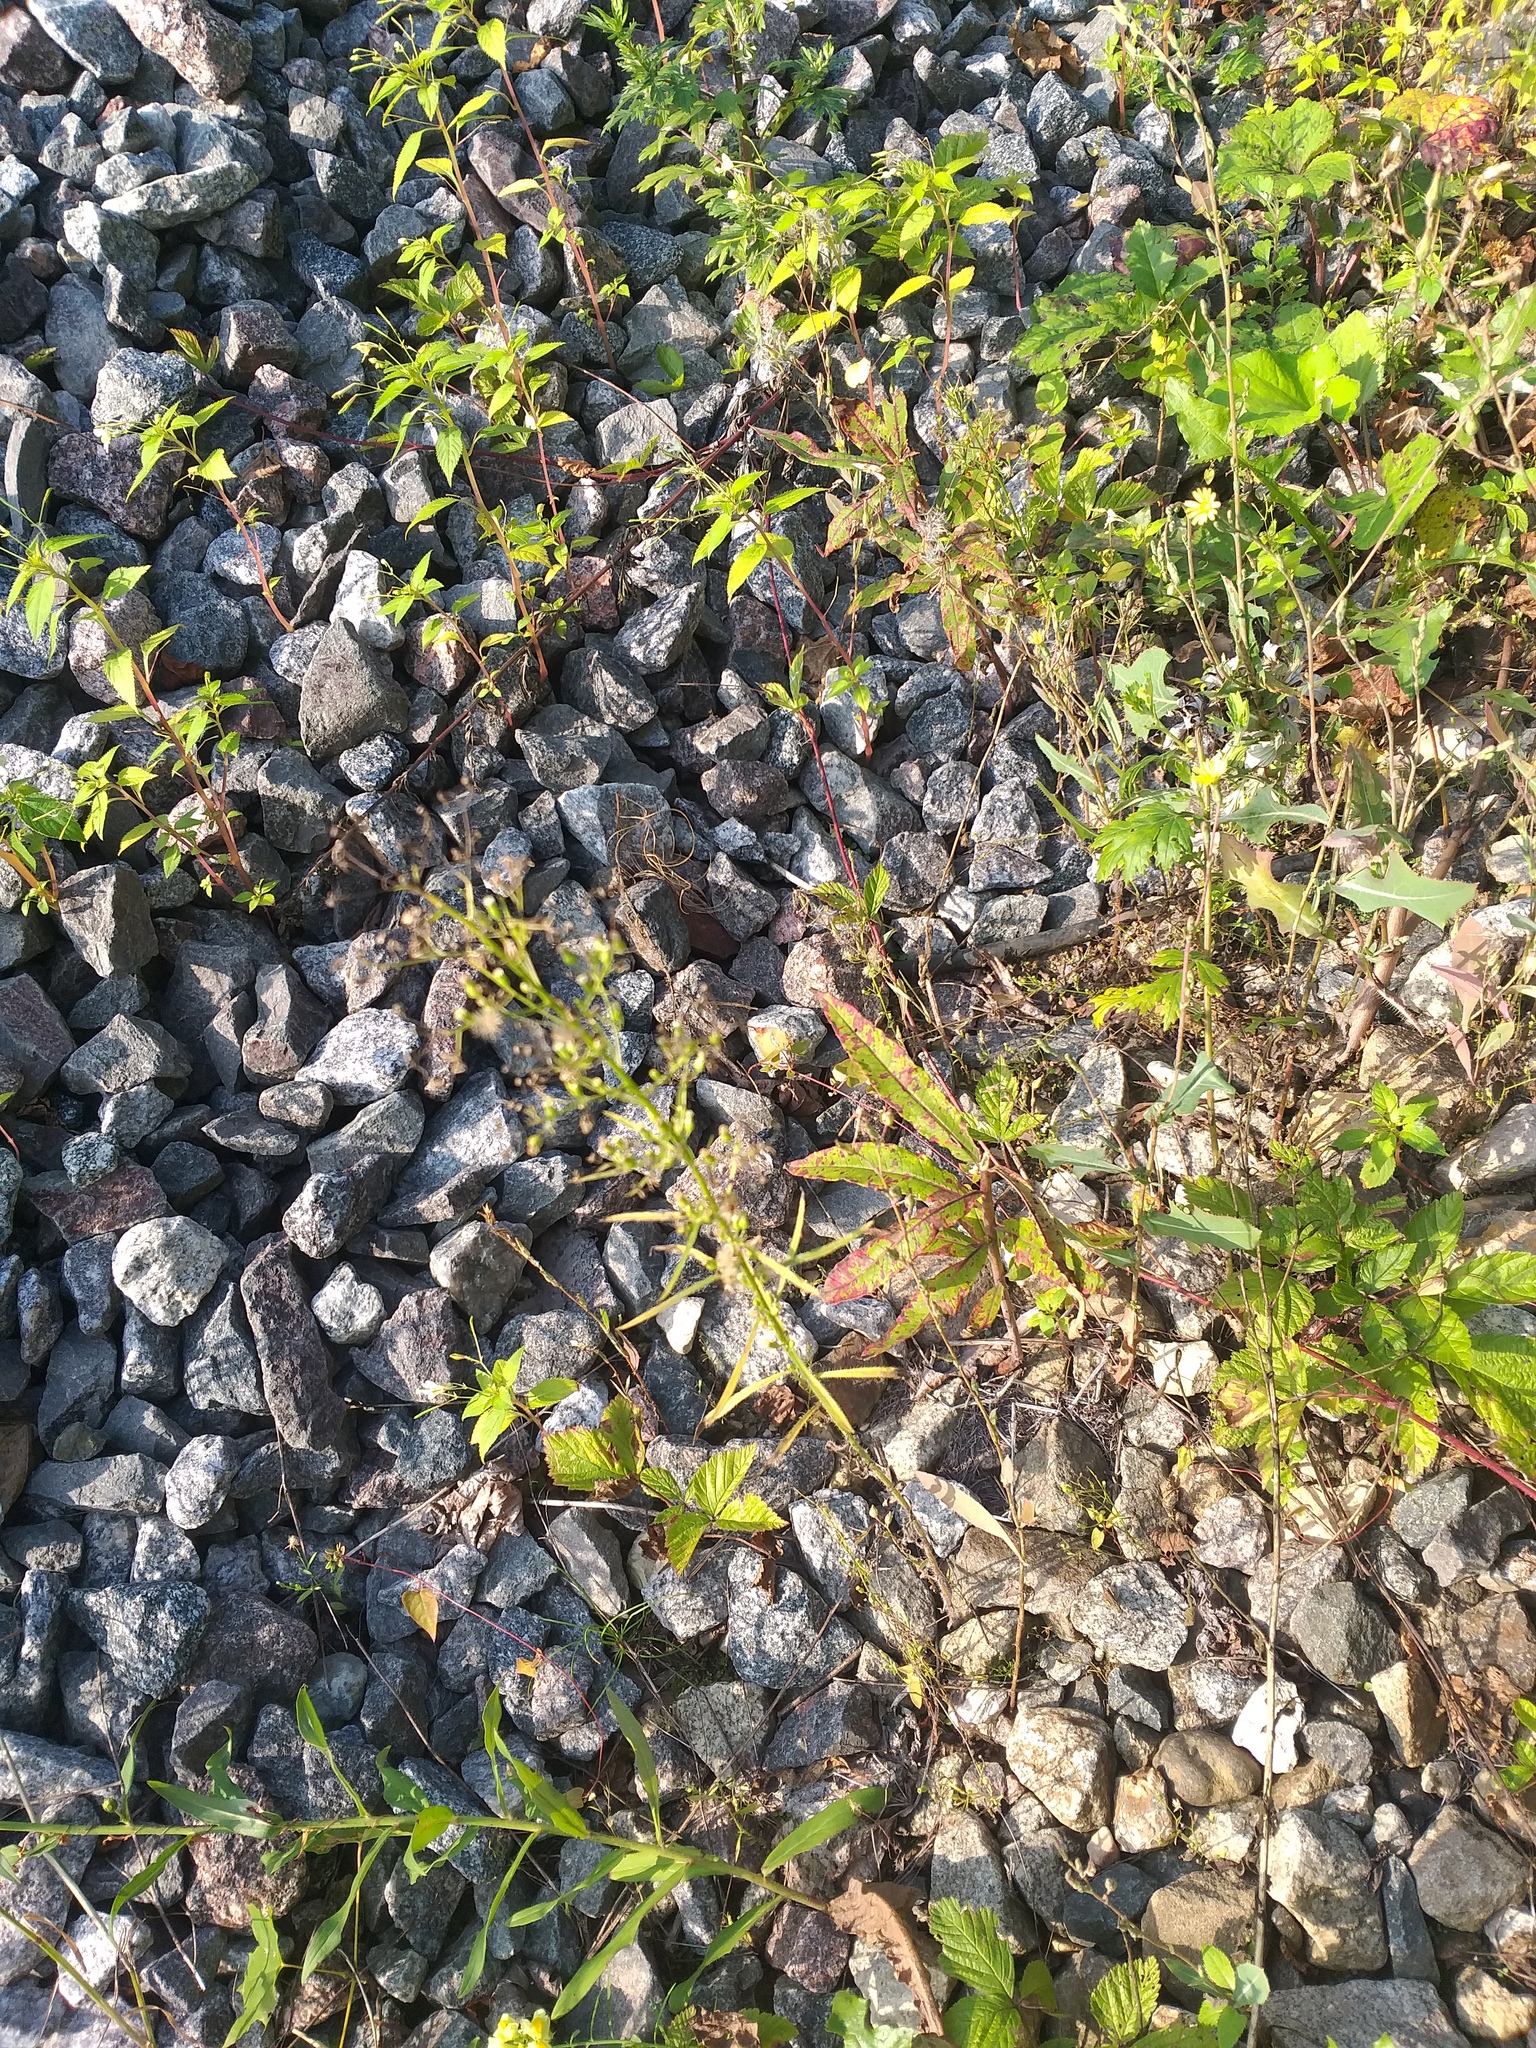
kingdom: Plantae
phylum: Tracheophyta
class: Magnoliopsida
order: Asterales
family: Asteraceae
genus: Erigeron
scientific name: Erigeron canadensis
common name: Canadian fleabane
